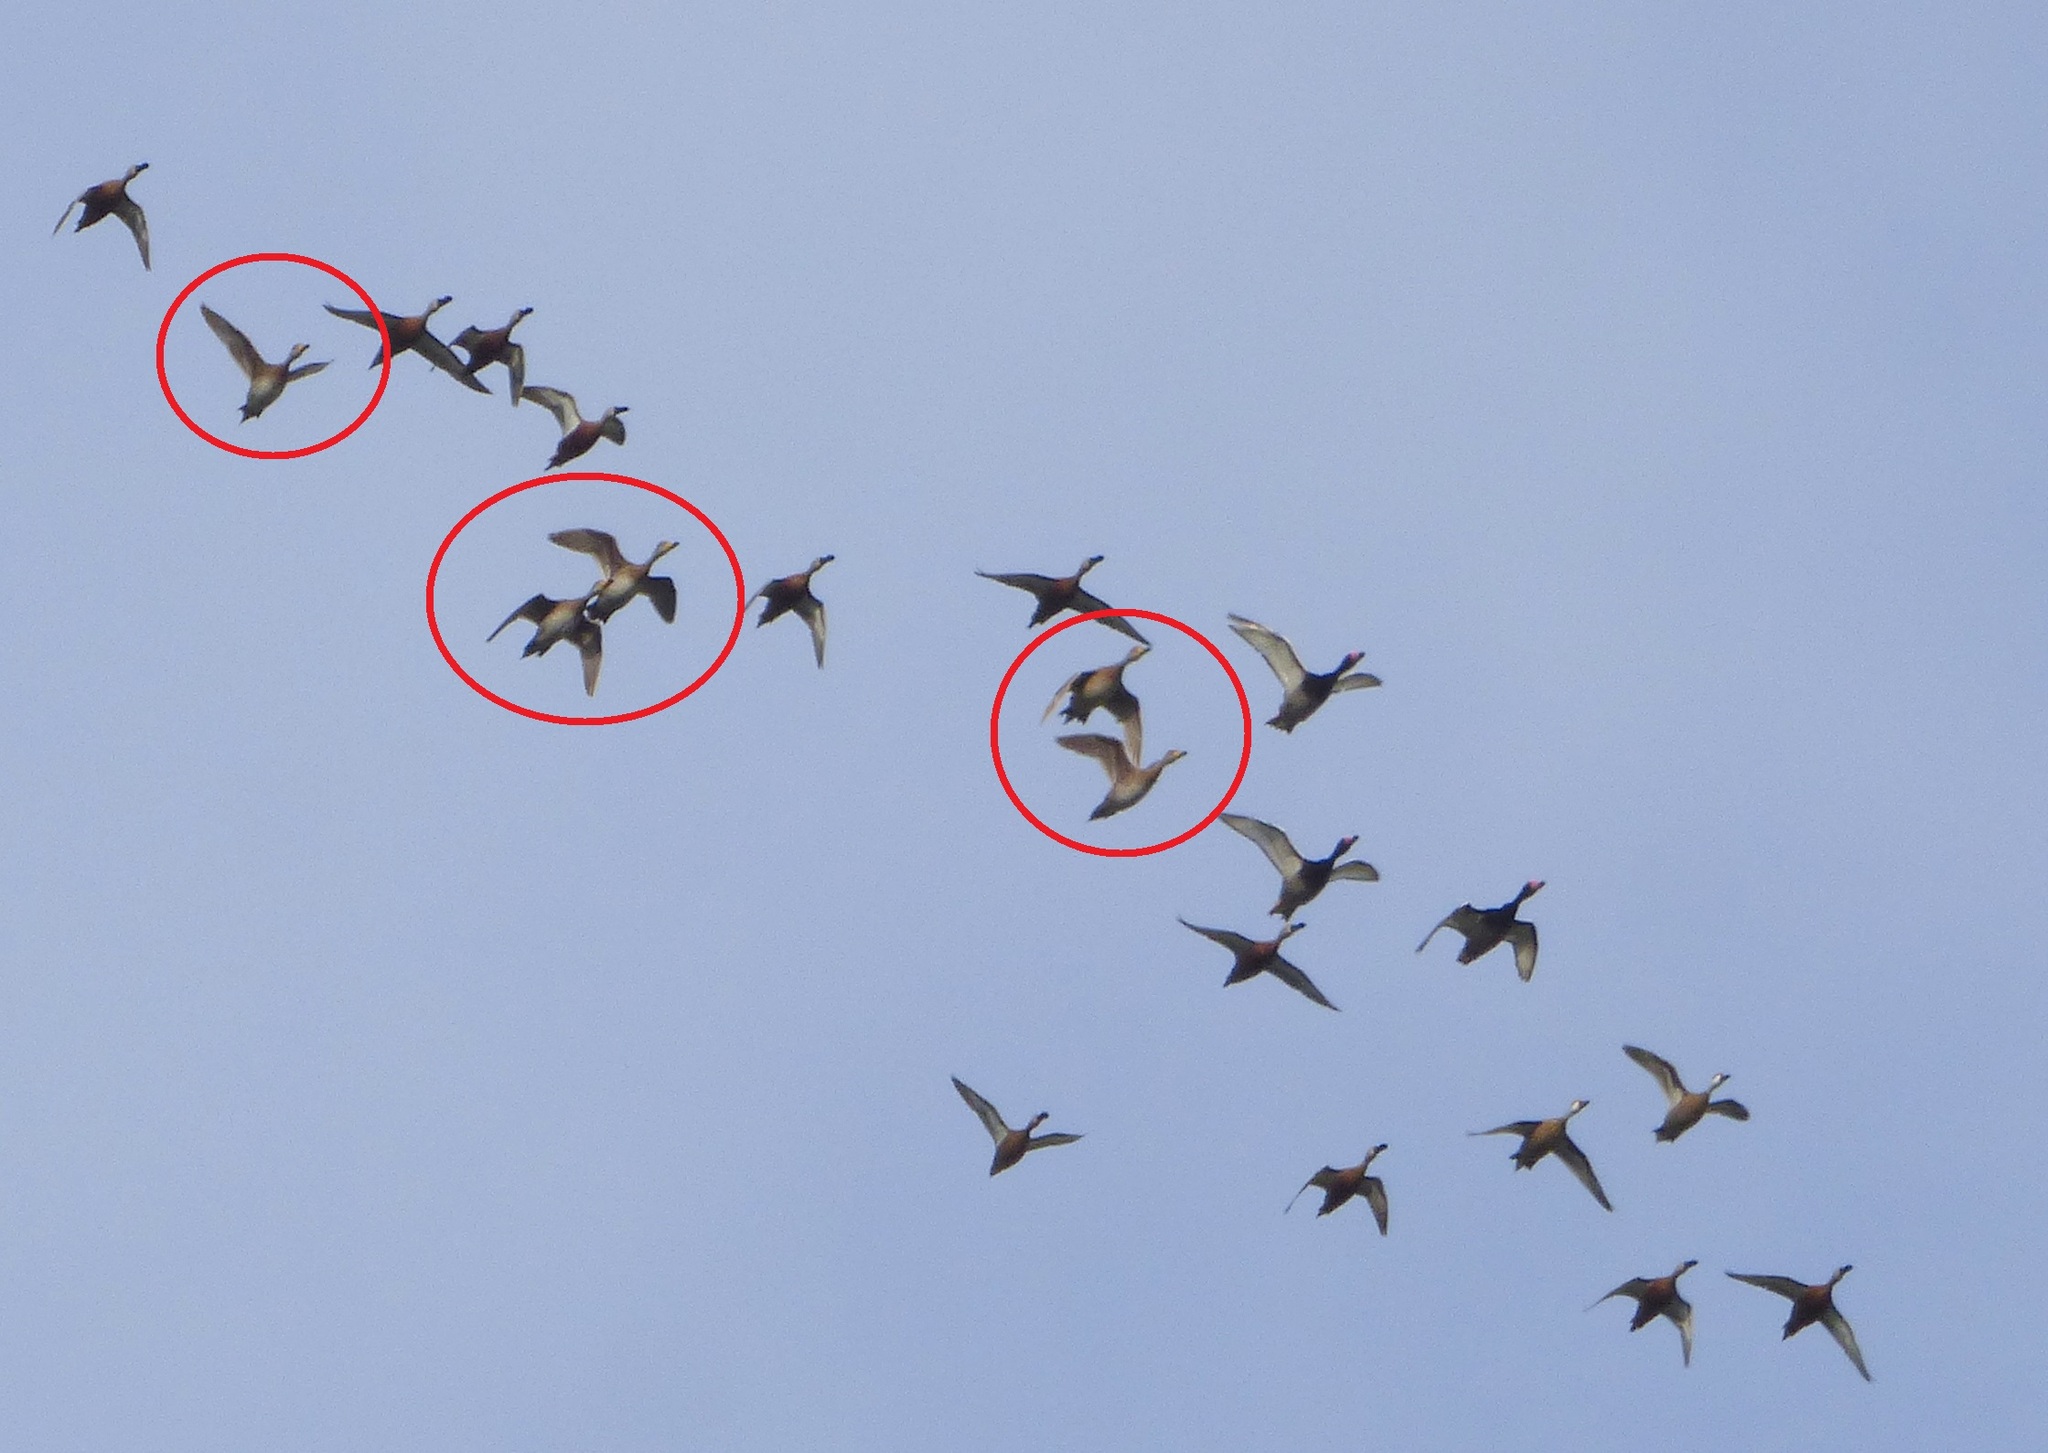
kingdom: Animalia
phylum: Chordata
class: Aves
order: Anseriformes
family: Anatidae
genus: Anas
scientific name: Anas georgica
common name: Yellow-billed pintail
